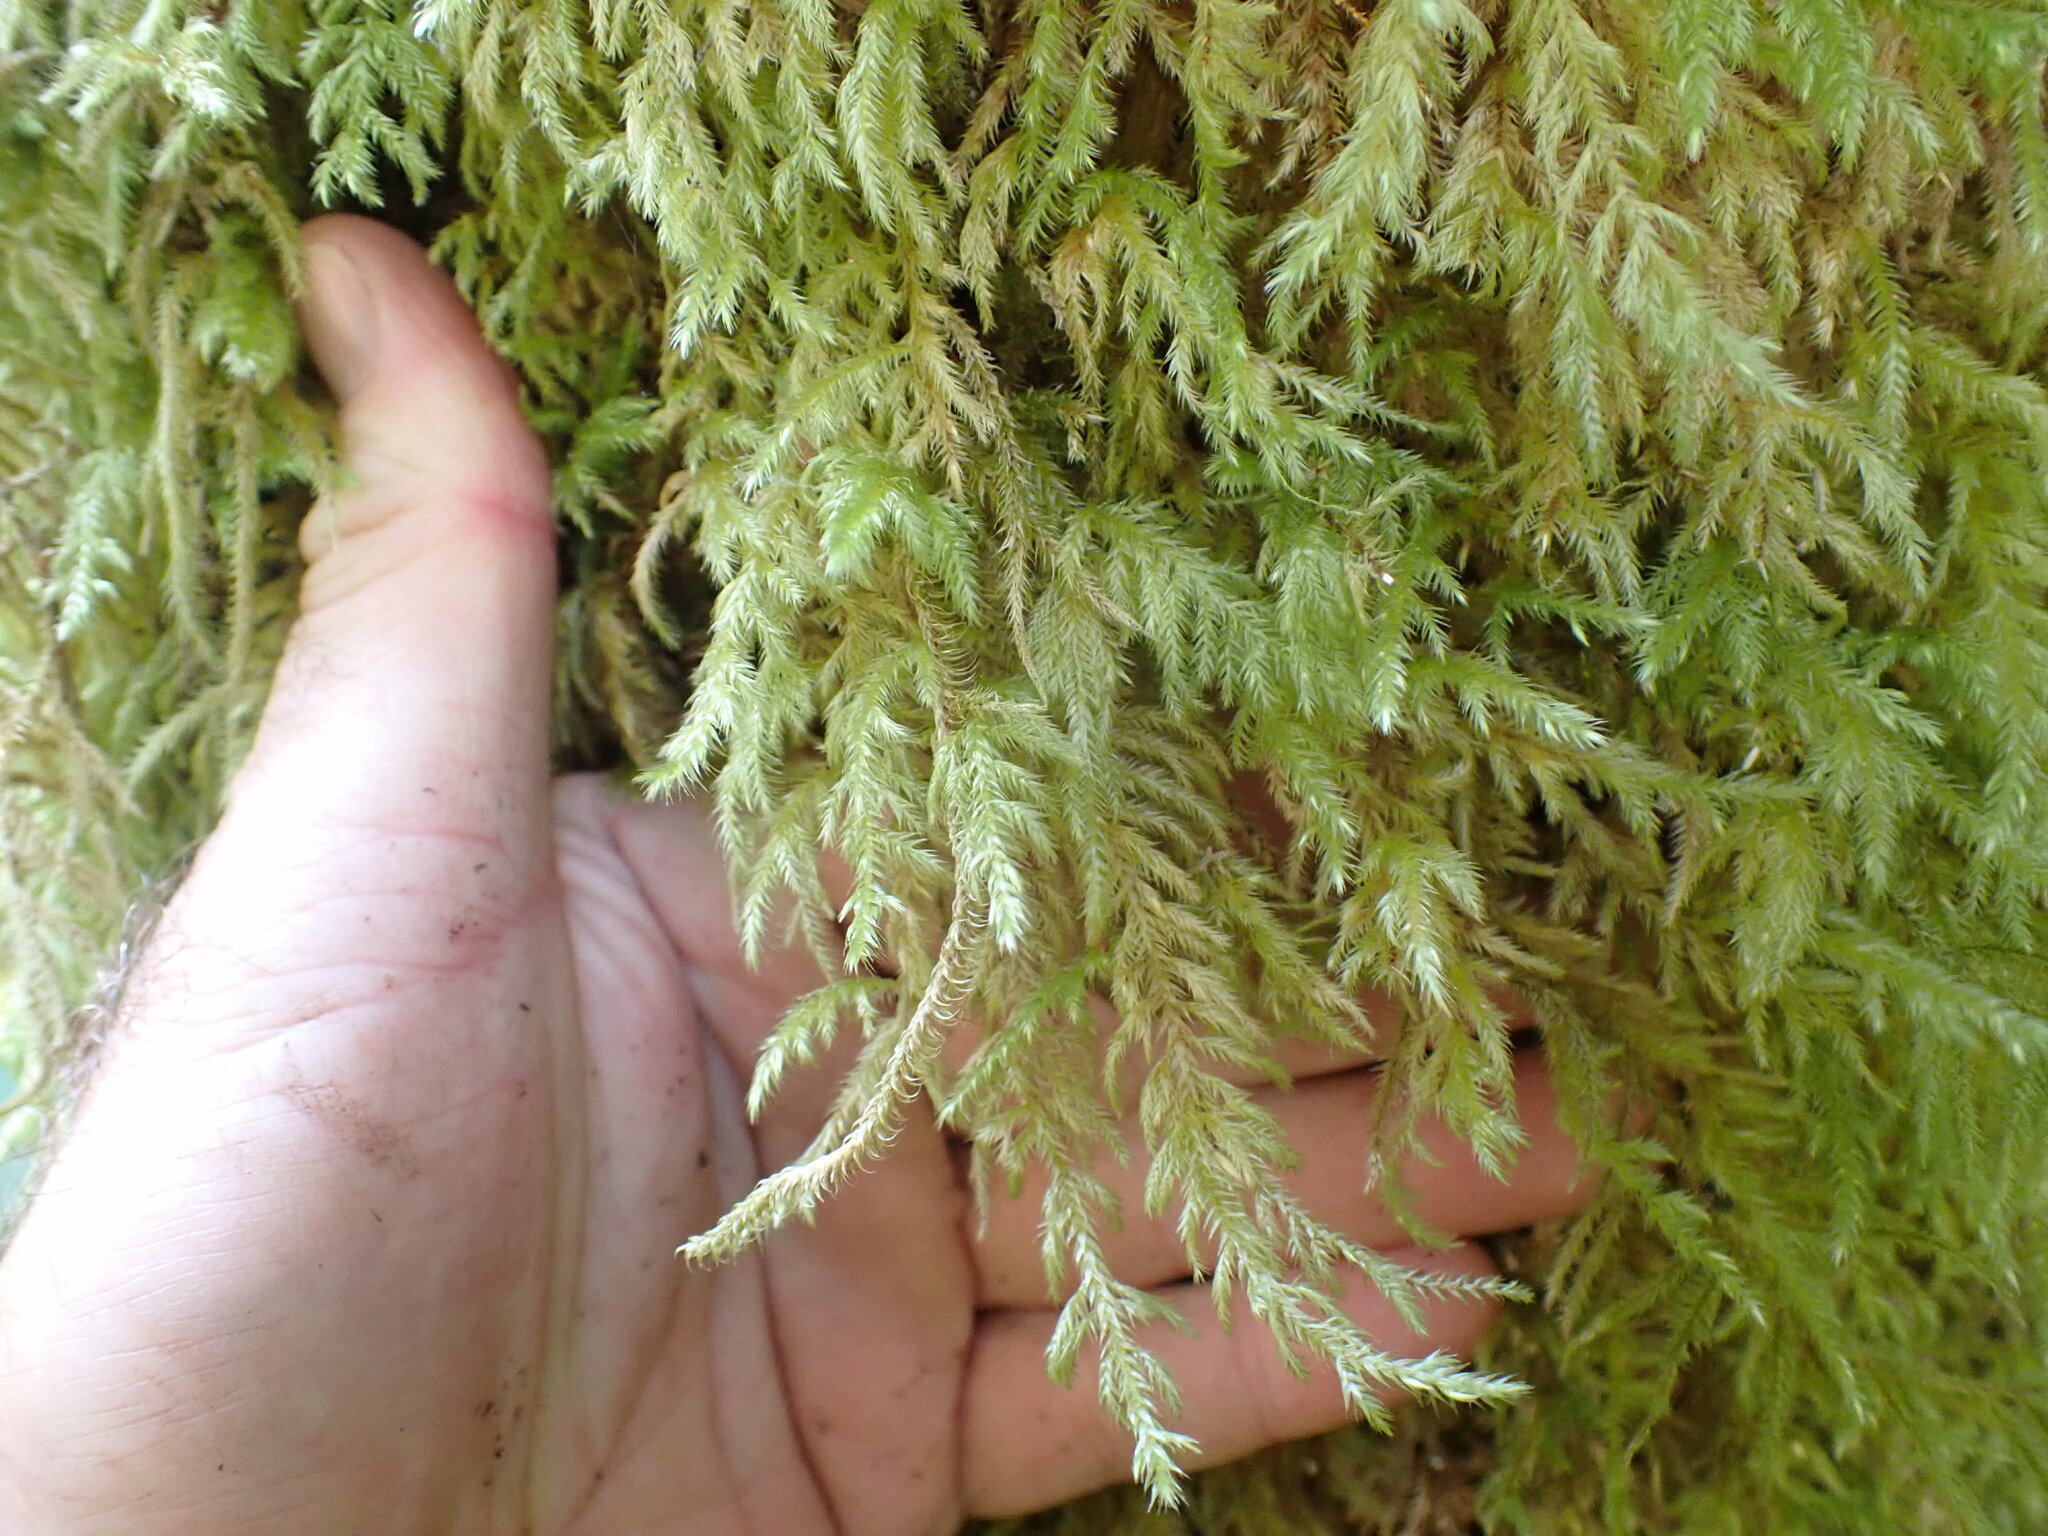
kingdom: Plantae
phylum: Bryophyta
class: Bryopsida
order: Hypnales
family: Lembophyllaceae
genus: Pseudisothecium
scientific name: Pseudisothecium stoloniferum
